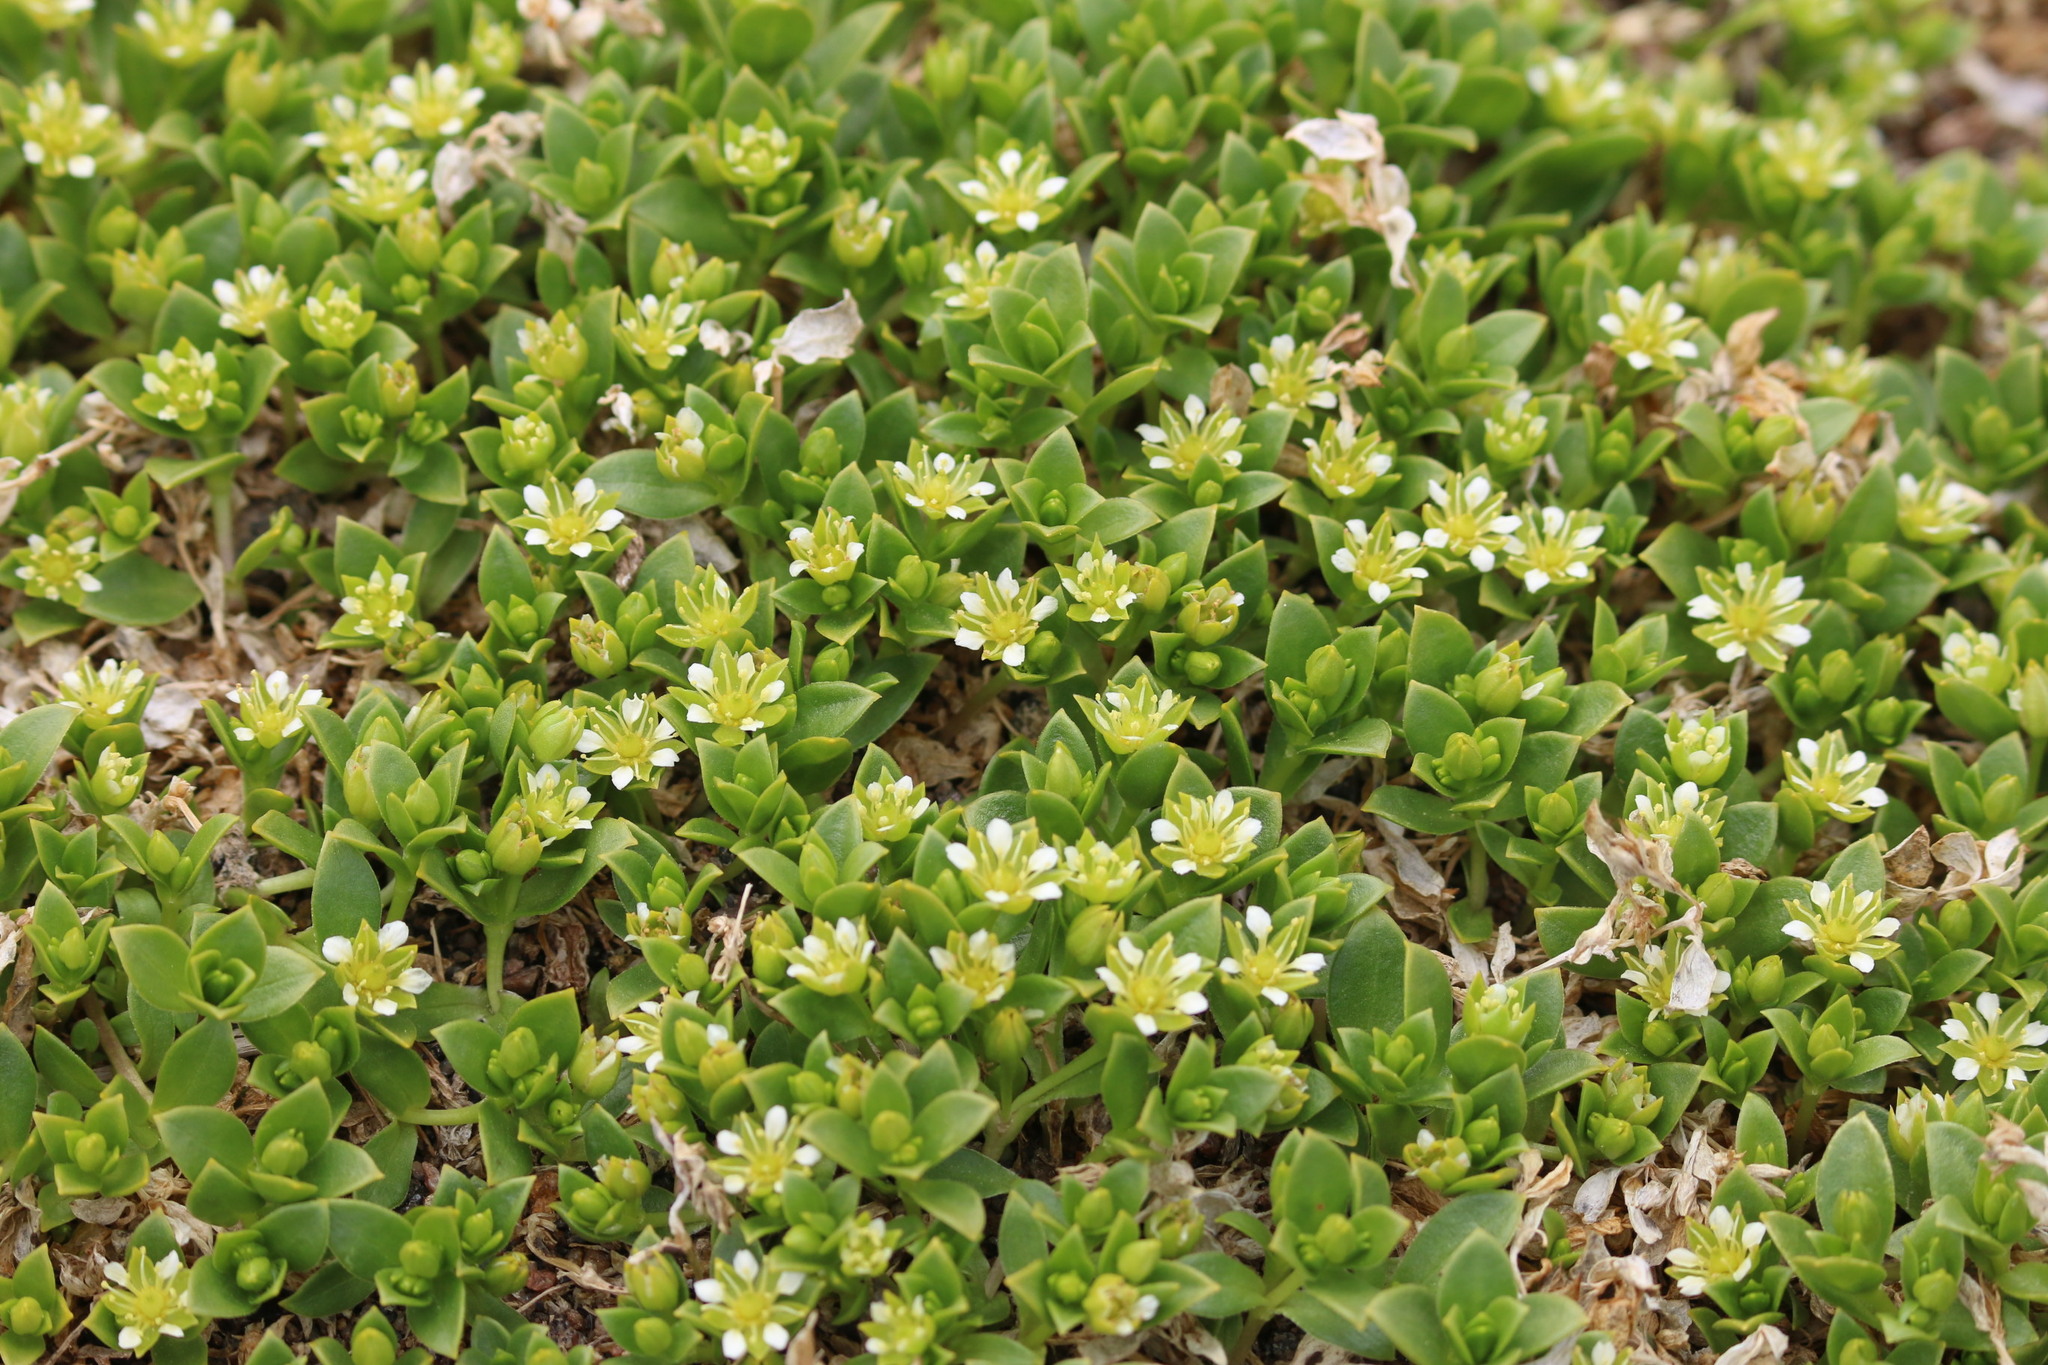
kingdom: Plantae
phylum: Tracheophyta
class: Magnoliopsida
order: Caryophyllales
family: Caryophyllaceae
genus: Honckenya
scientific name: Honckenya peploides
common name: Sea sandwort
